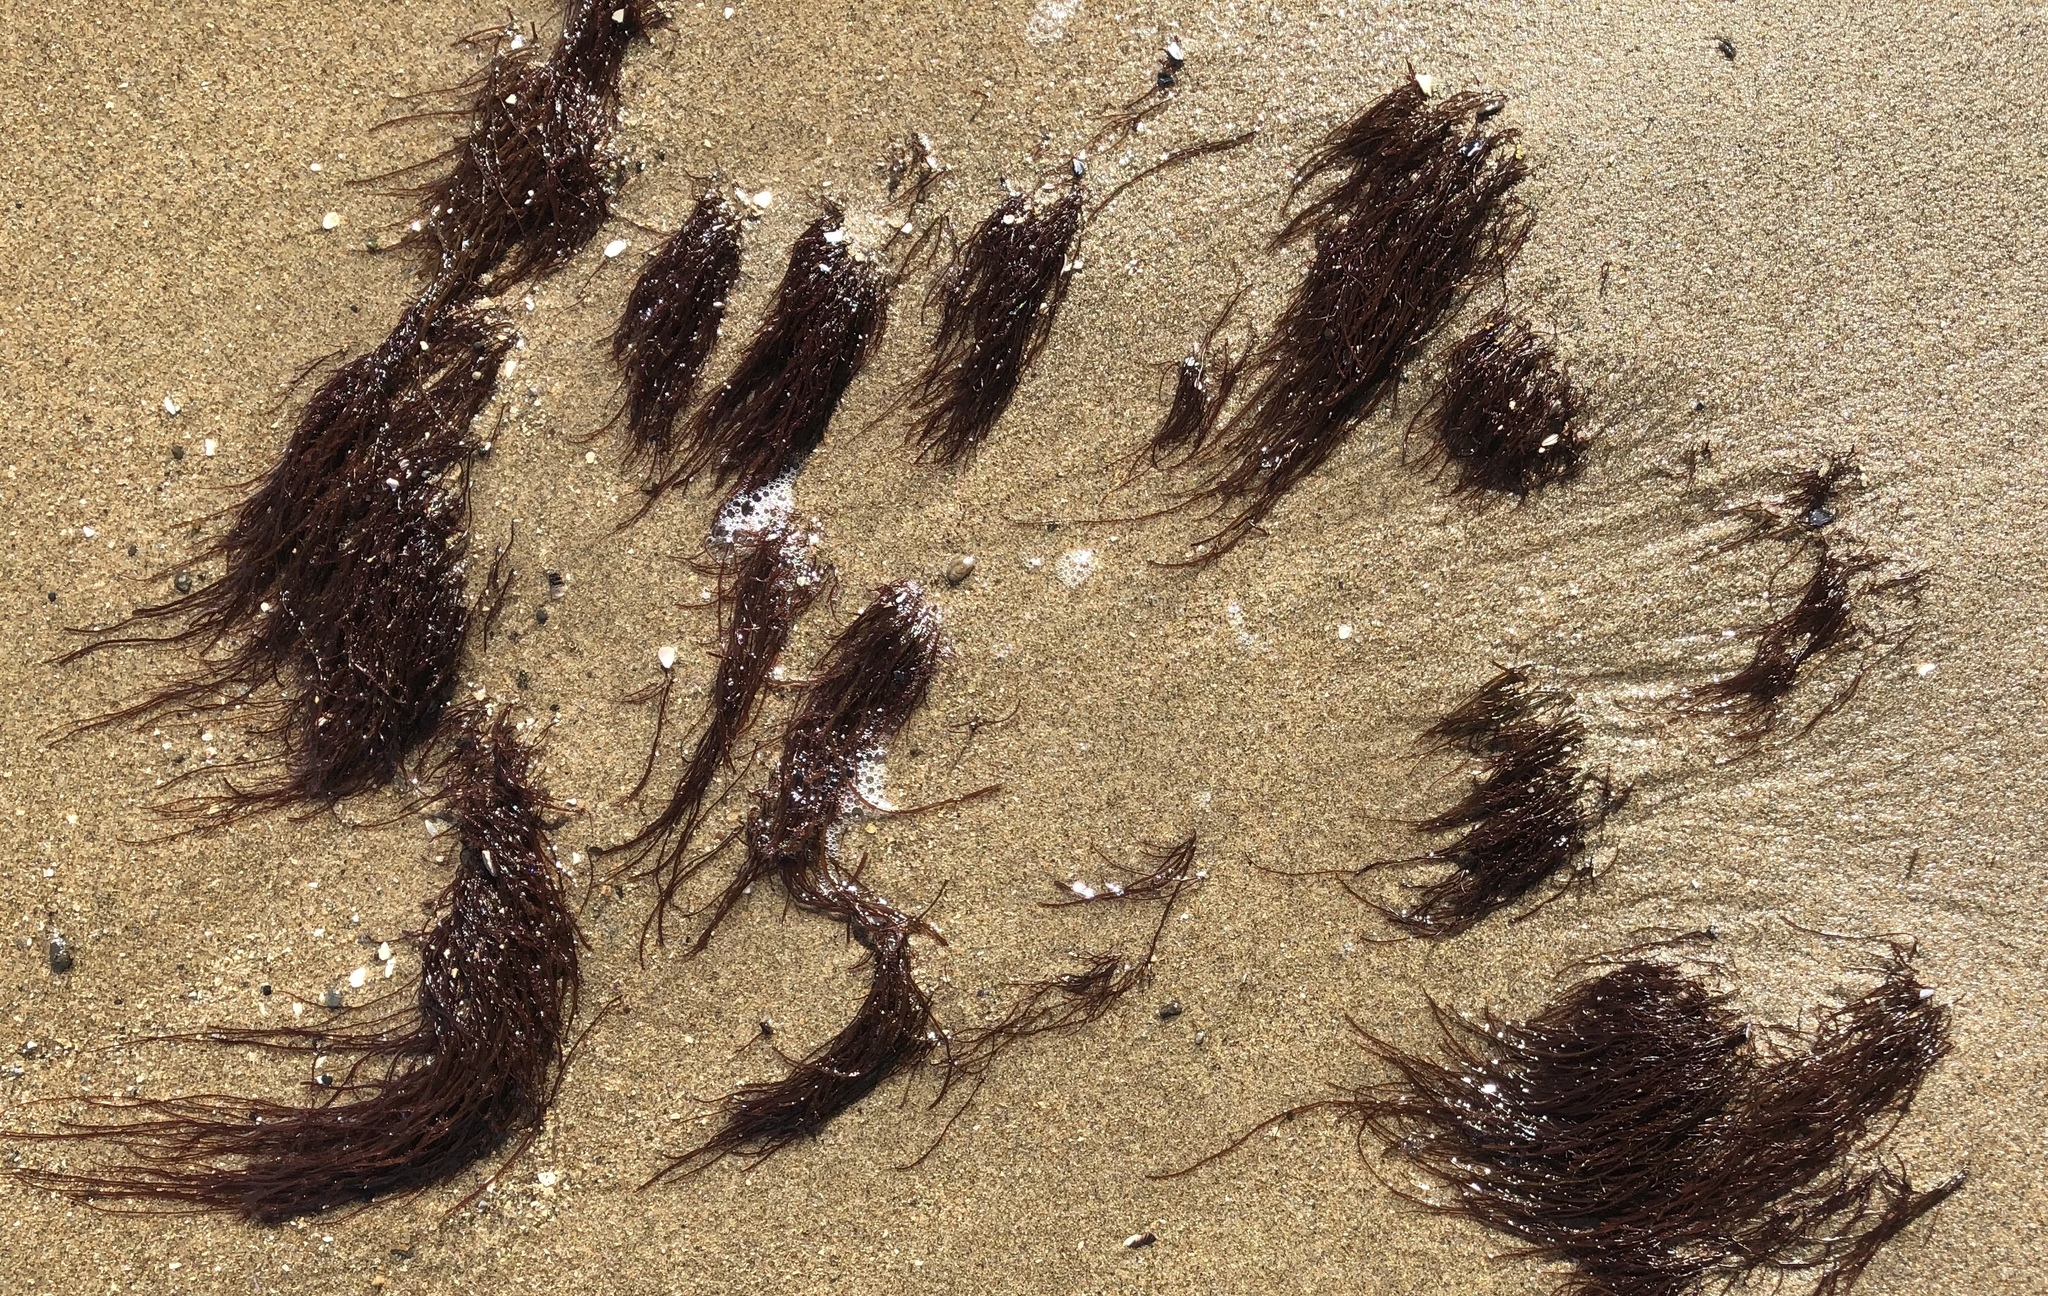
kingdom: Plantae
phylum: Rhodophyta
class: Florideophyceae
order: Gracilariales
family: Gracilariaceae
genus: Gracilariopsis
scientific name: Gracilariopsis andersonii
